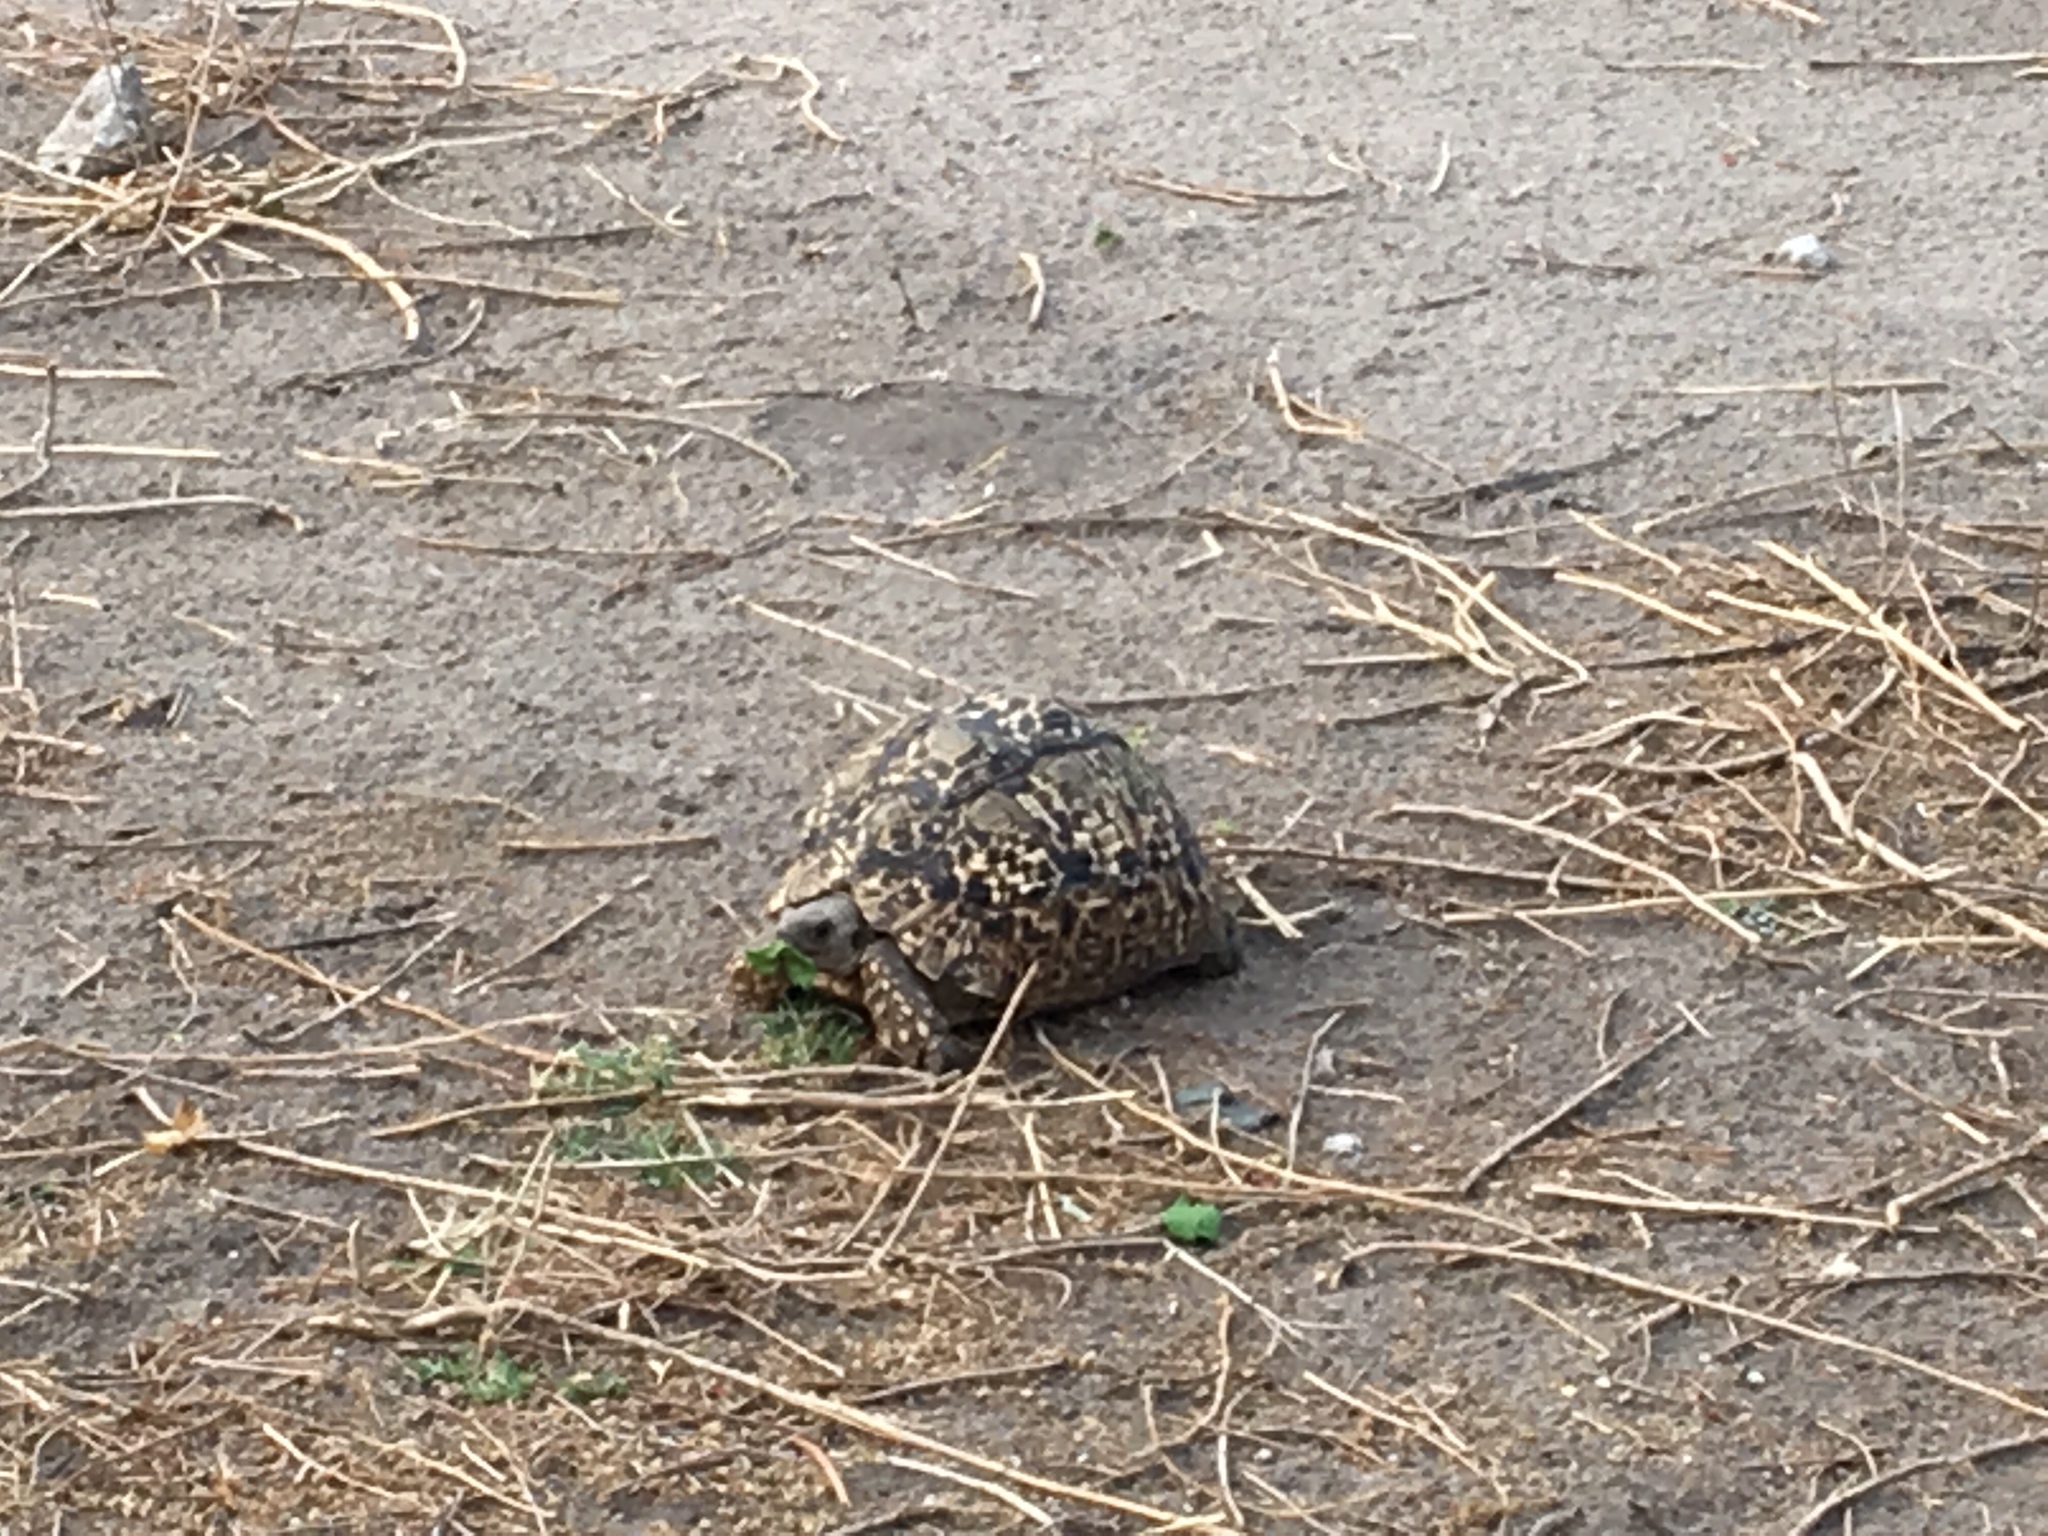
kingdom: Animalia
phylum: Chordata
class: Testudines
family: Testudinidae
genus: Stigmochelys
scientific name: Stigmochelys pardalis
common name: Leopard tortoise
